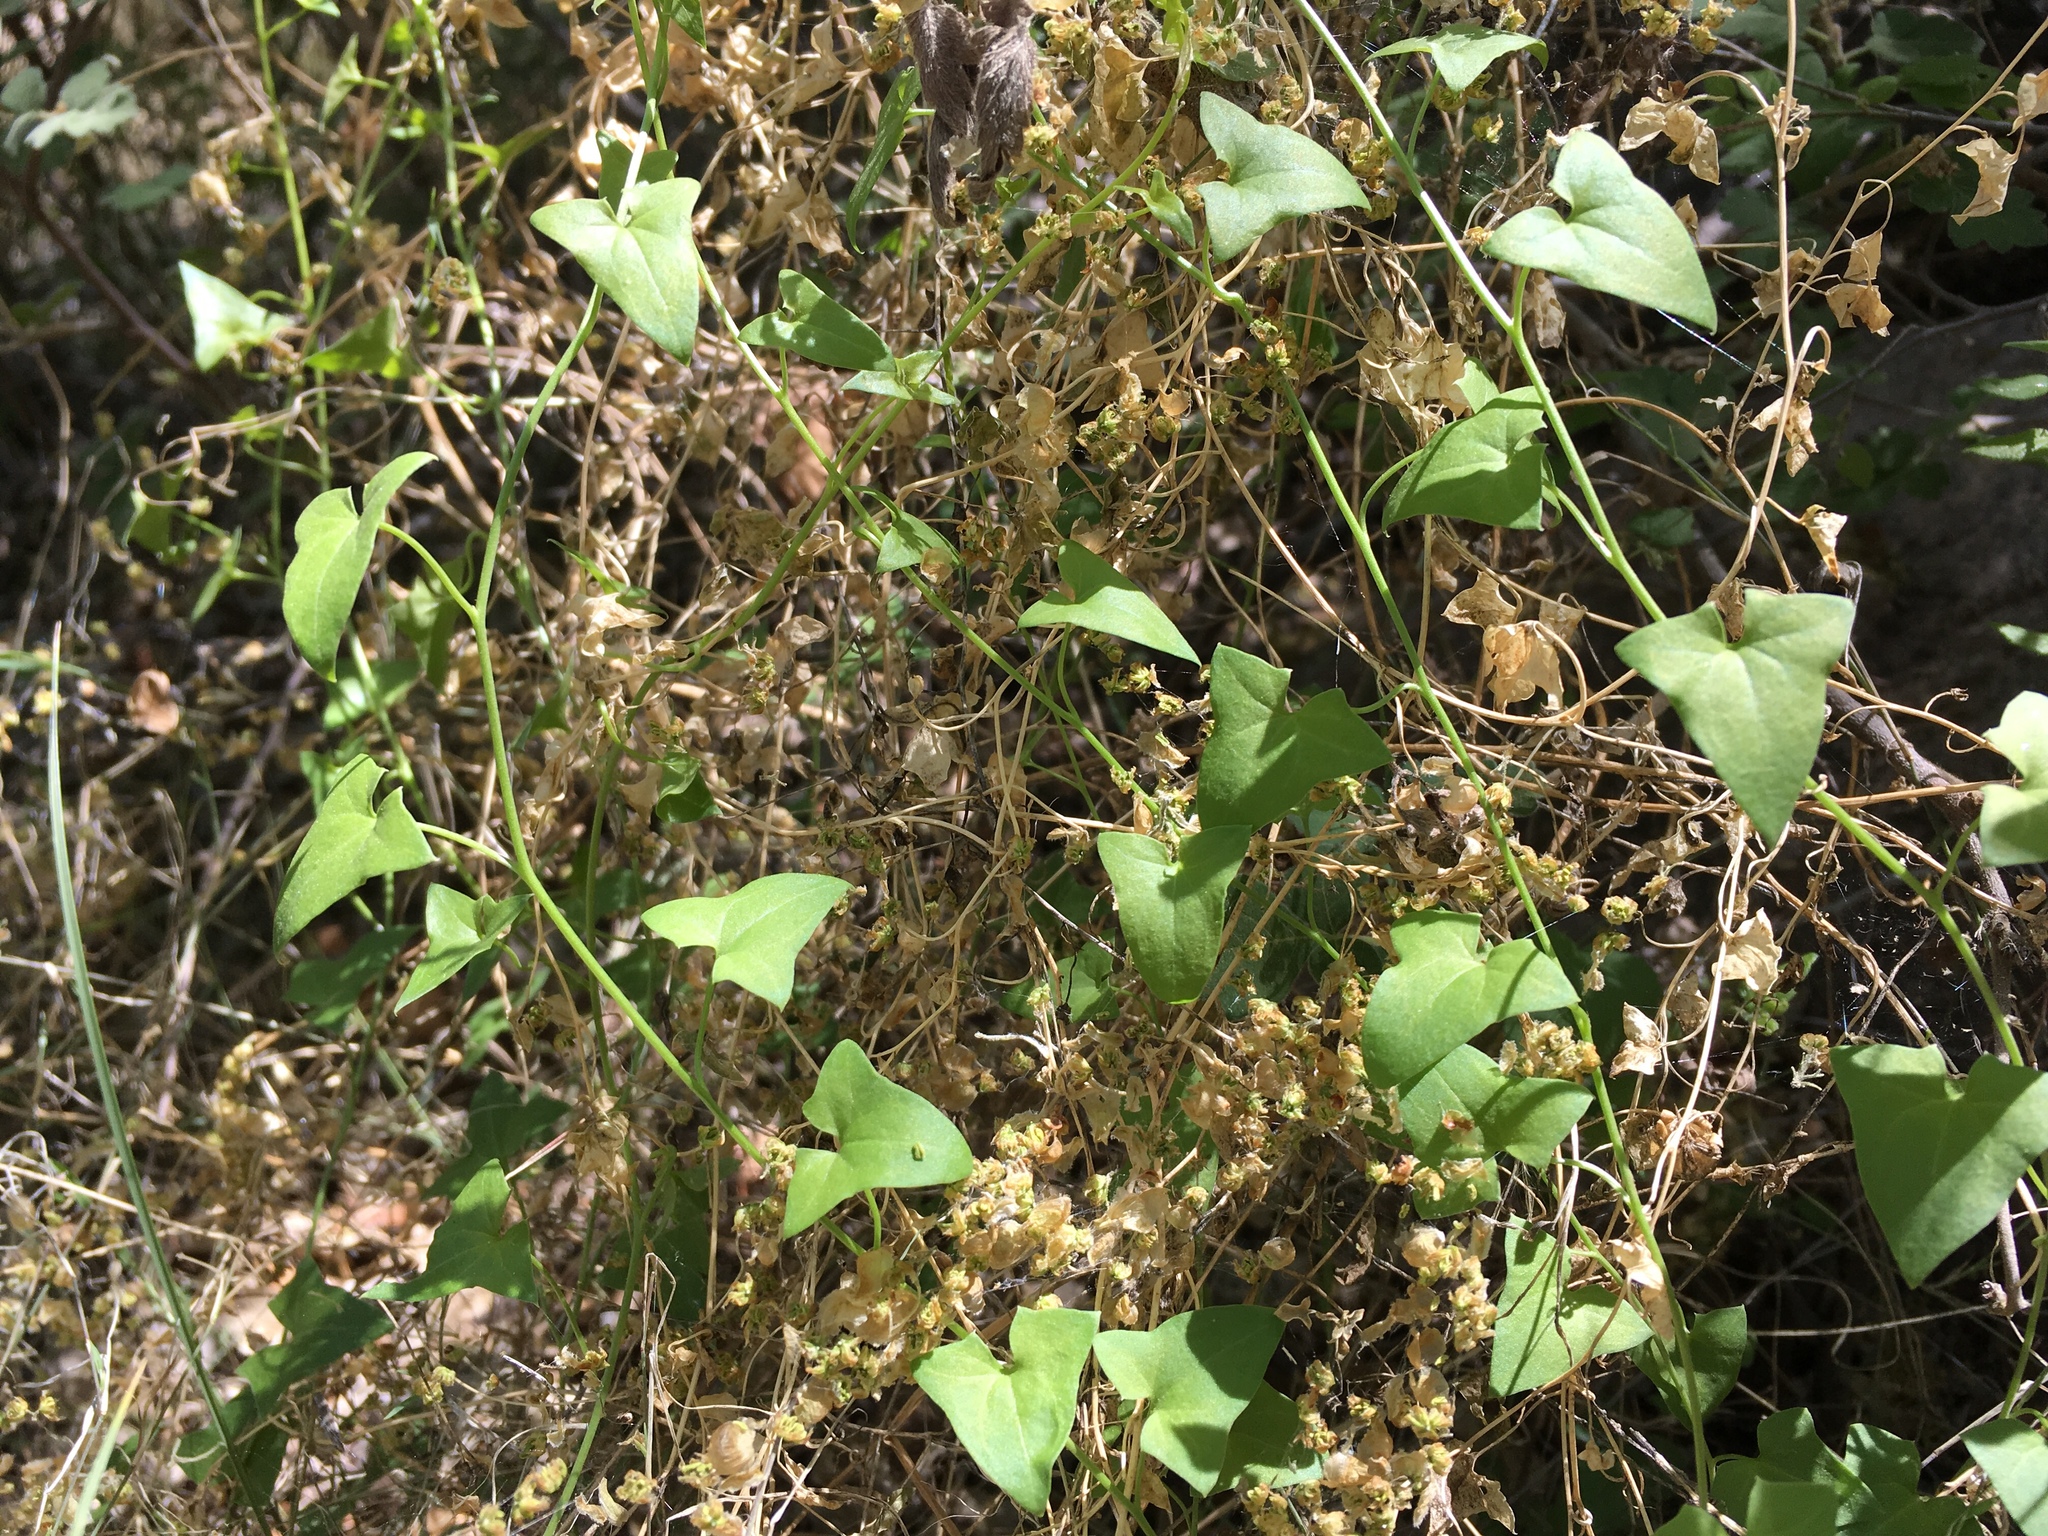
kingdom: Plantae
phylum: Tracheophyta
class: Magnoliopsida
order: Lamiales
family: Plantaginaceae
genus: Maurandella
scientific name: Maurandella antirrhiniflora
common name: Violet twining-snapdragon
